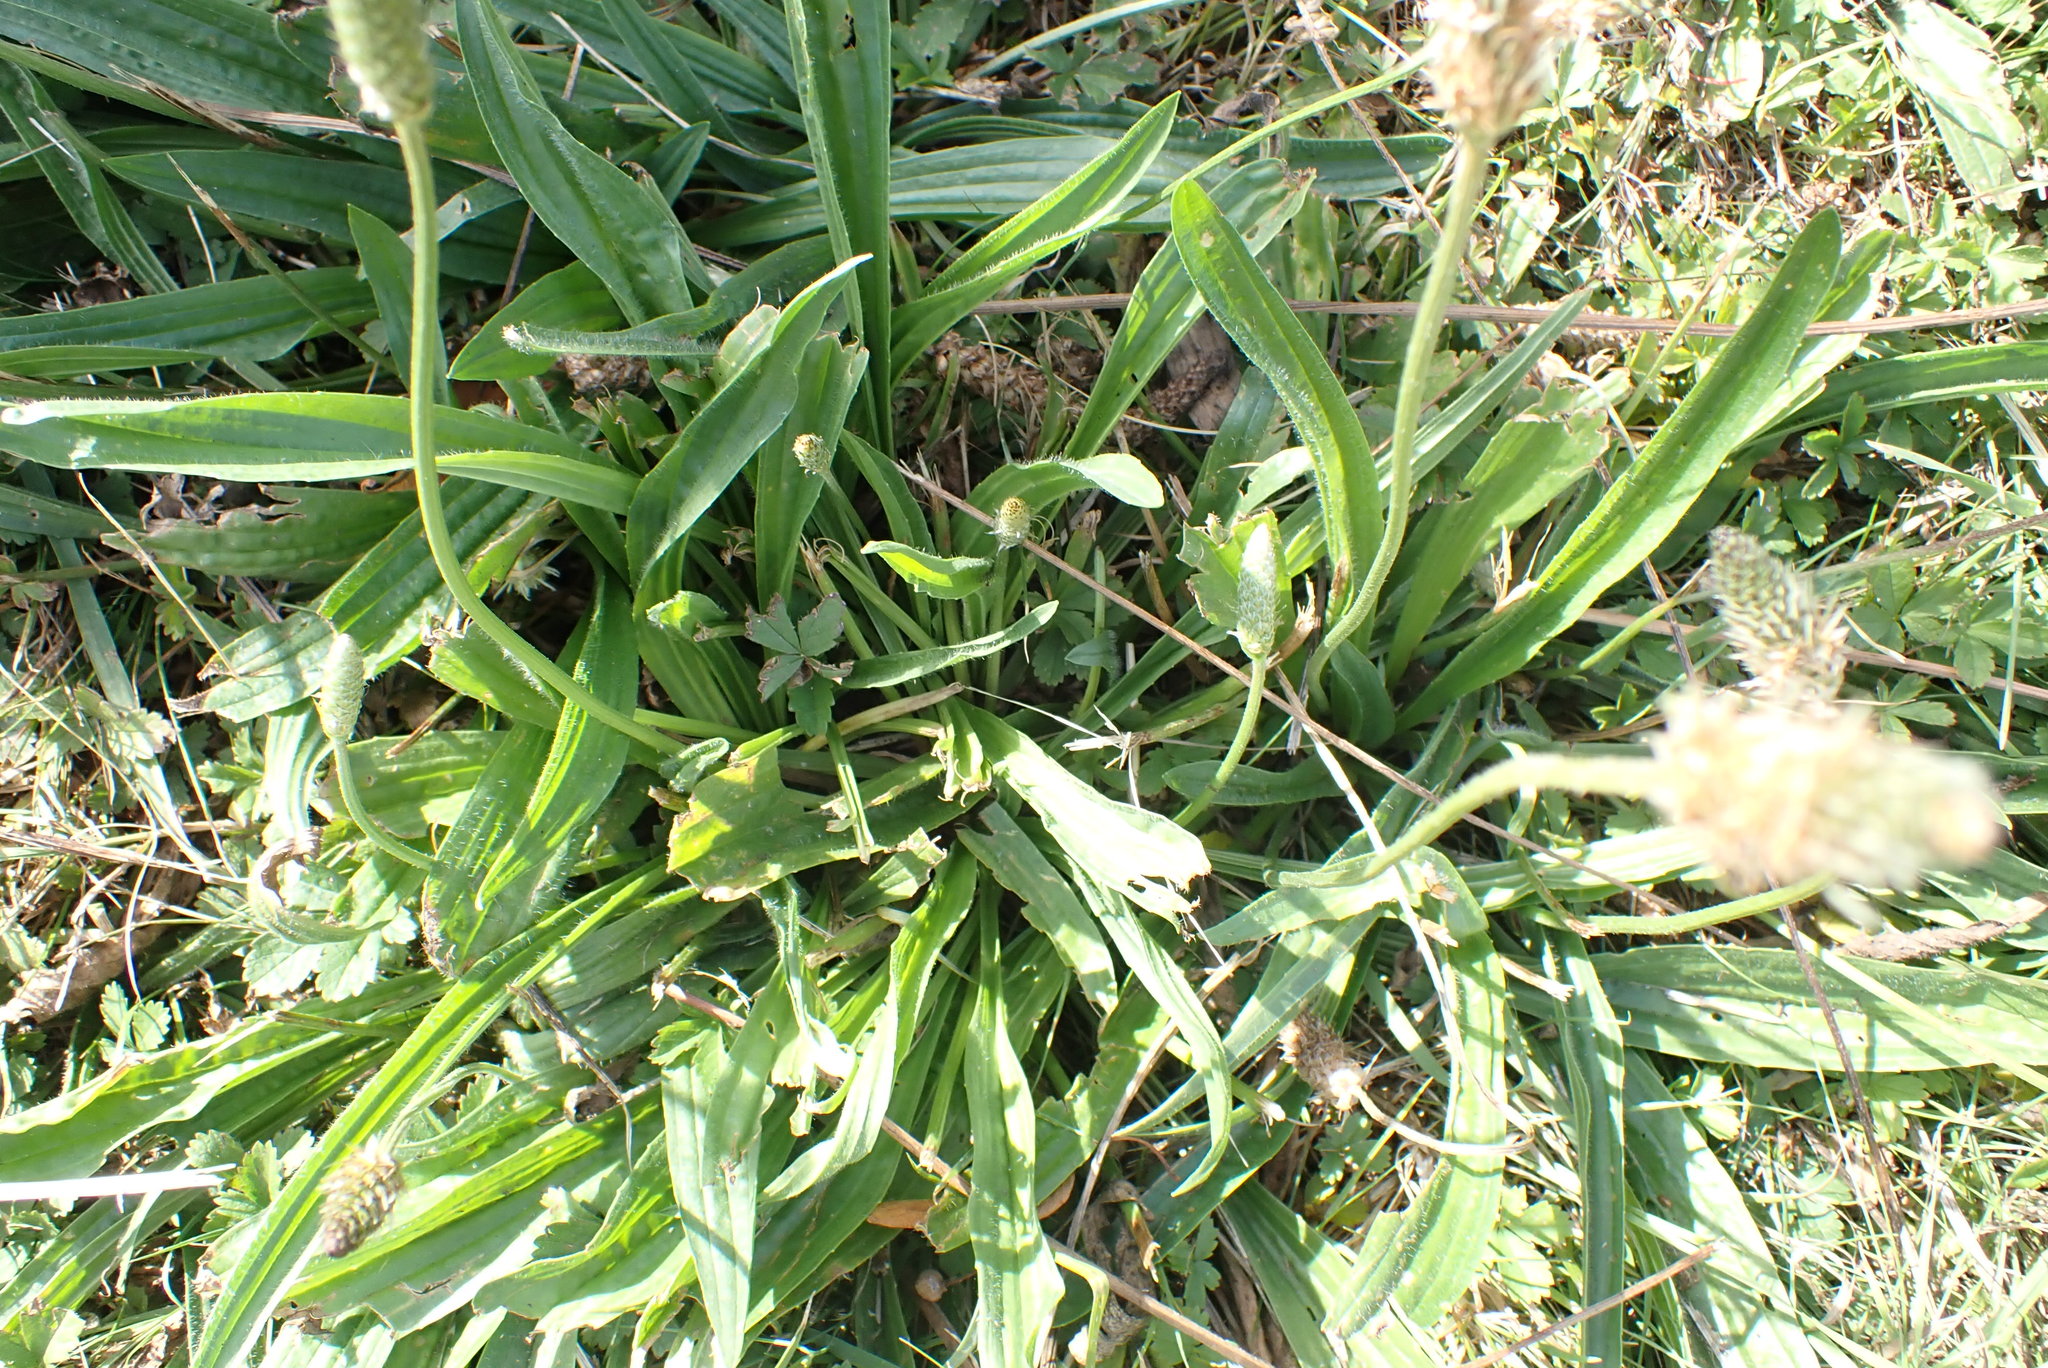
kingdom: Plantae
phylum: Tracheophyta
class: Magnoliopsida
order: Lamiales
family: Plantaginaceae
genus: Plantago
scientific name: Plantago lanceolata
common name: Ribwort plantain
